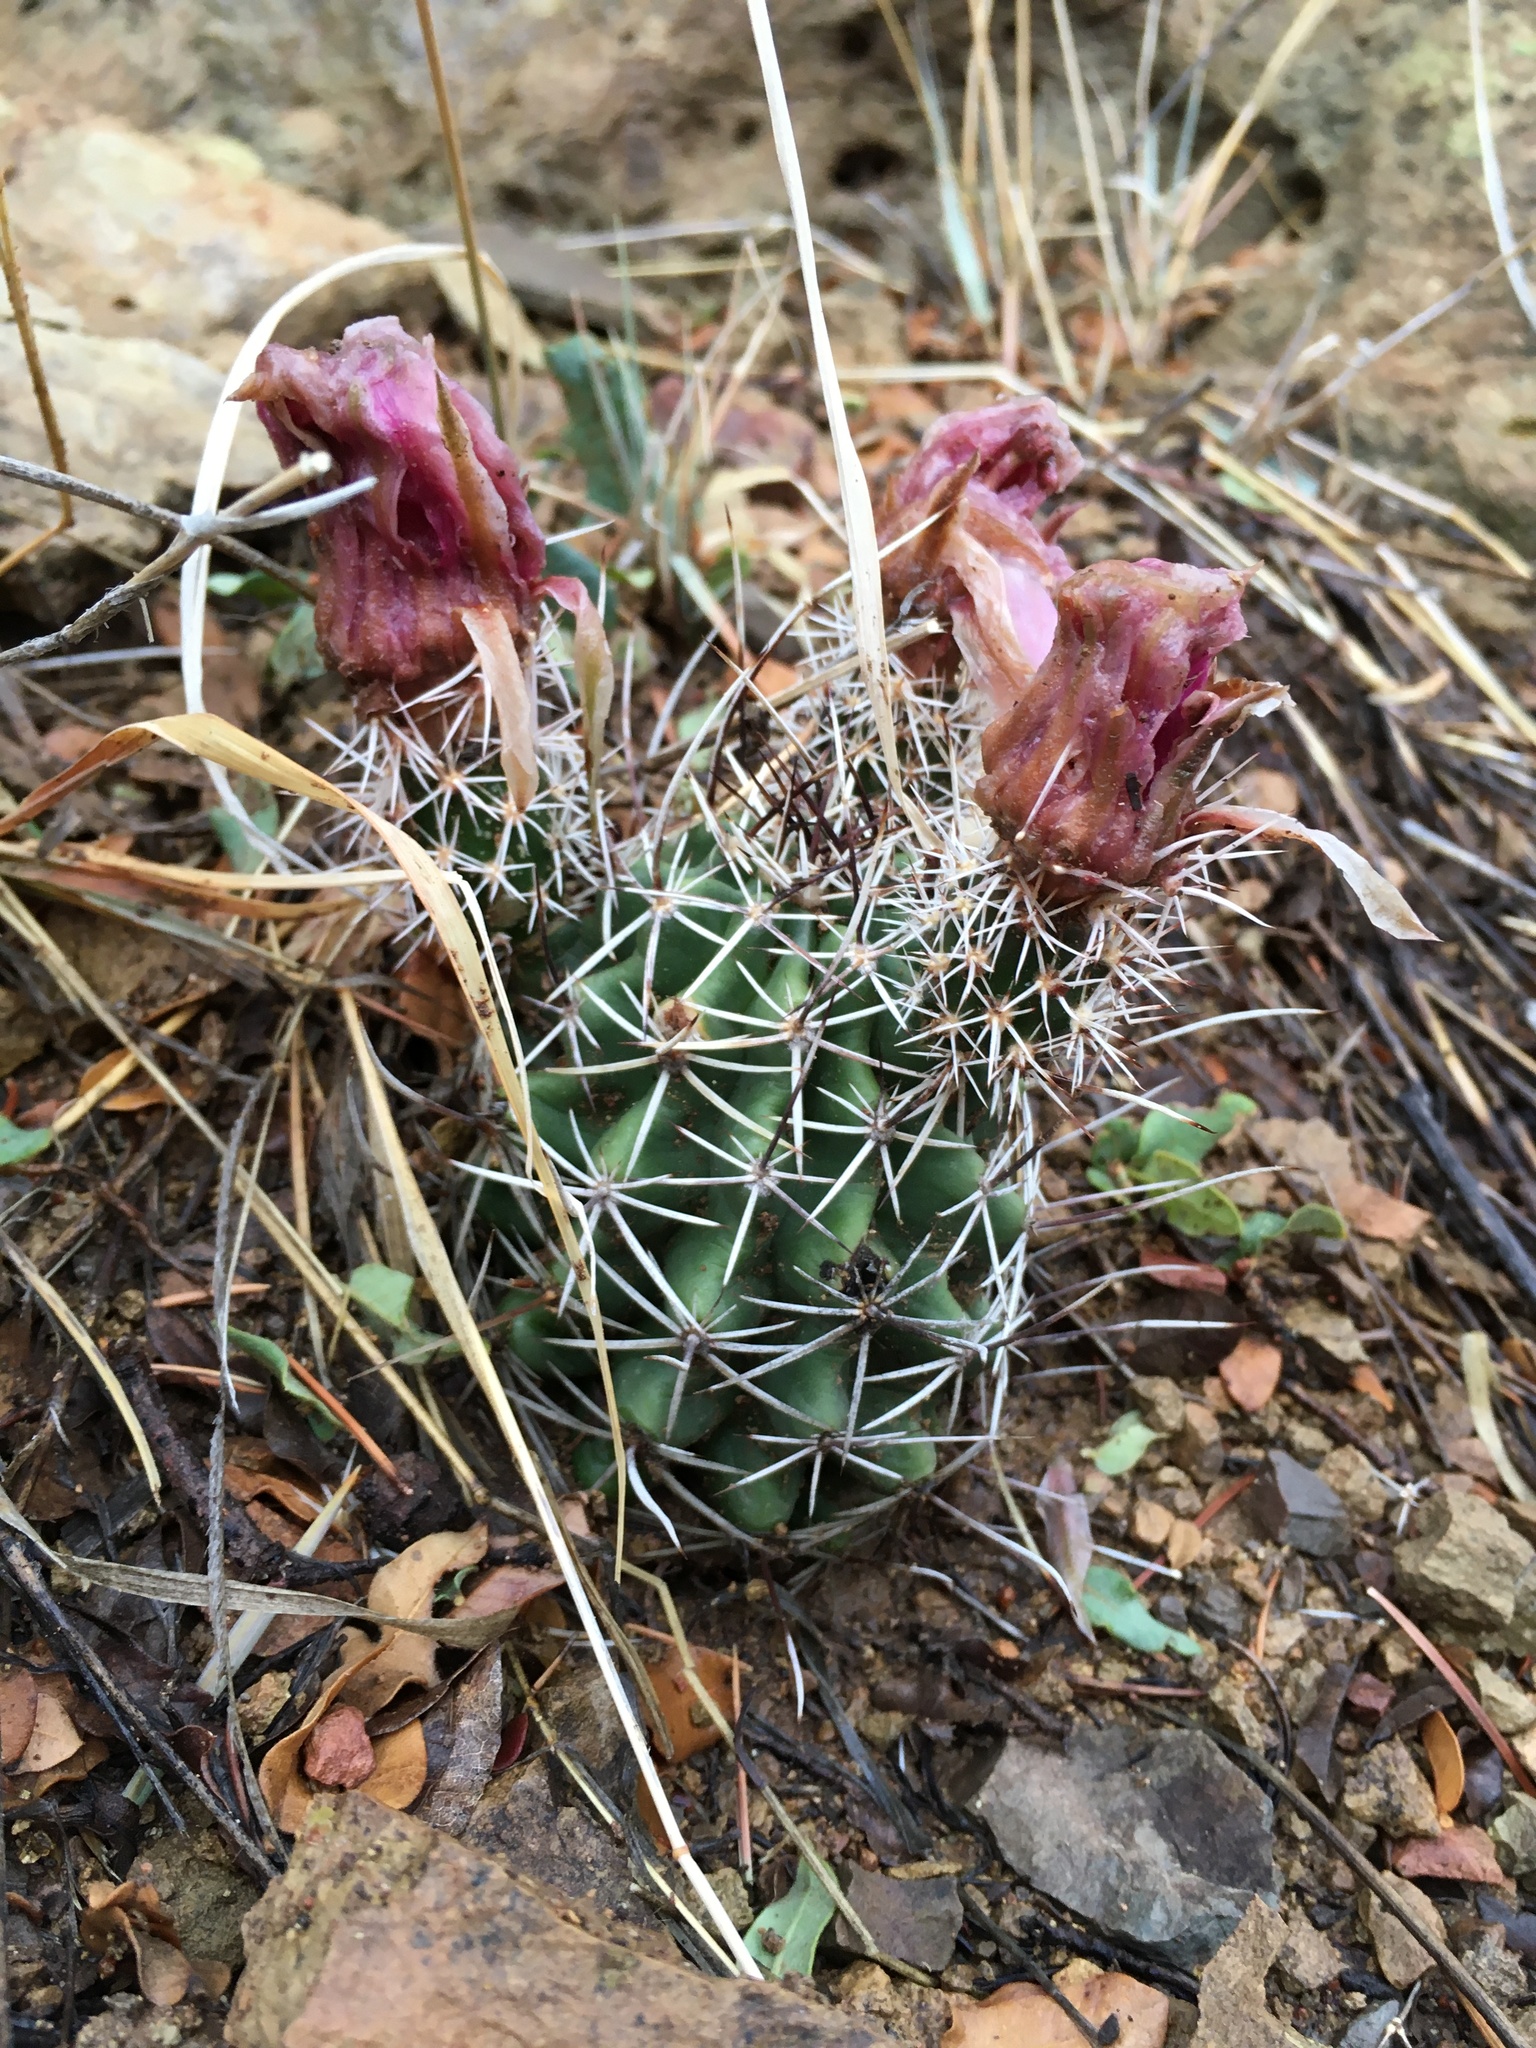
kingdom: Plantae
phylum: Tracheophyta
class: Magnoliopsida
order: Caryophyllales
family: Cactaceae
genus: Echinocereus
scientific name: Echinocereus fendleri
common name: Fendler's hedgehog cactus
